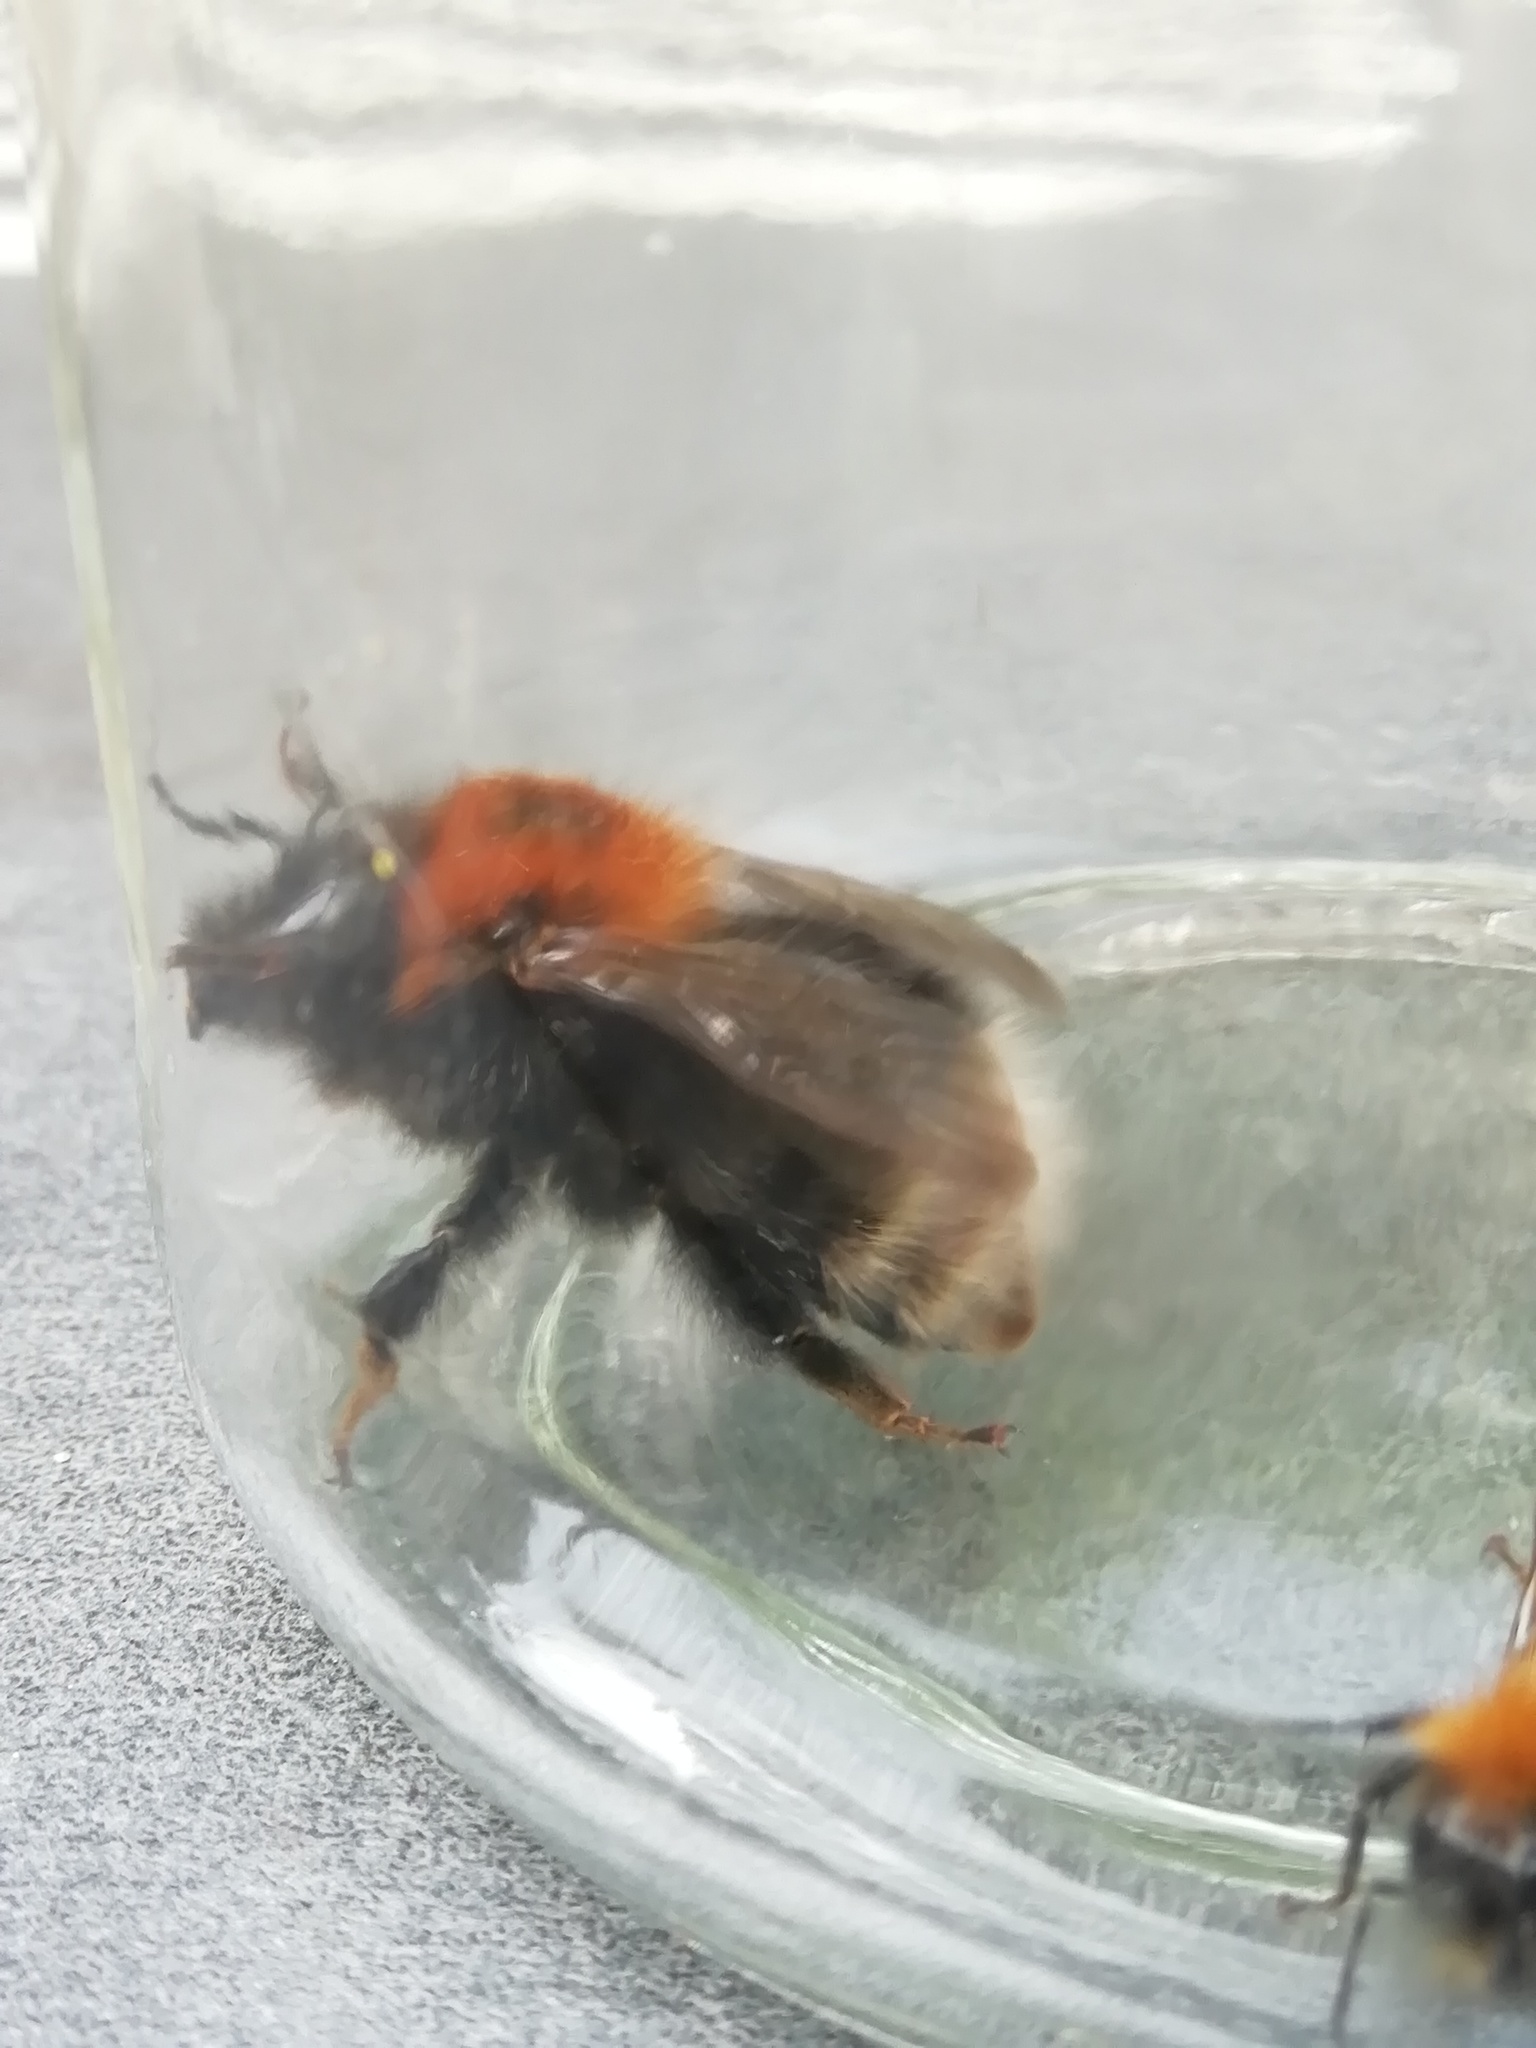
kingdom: Animalia
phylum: Arthropoda
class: Insecta
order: Hymenoptera
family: Apidae
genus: Bombus
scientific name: Bombus hypnorum
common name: New garden bumblebee
